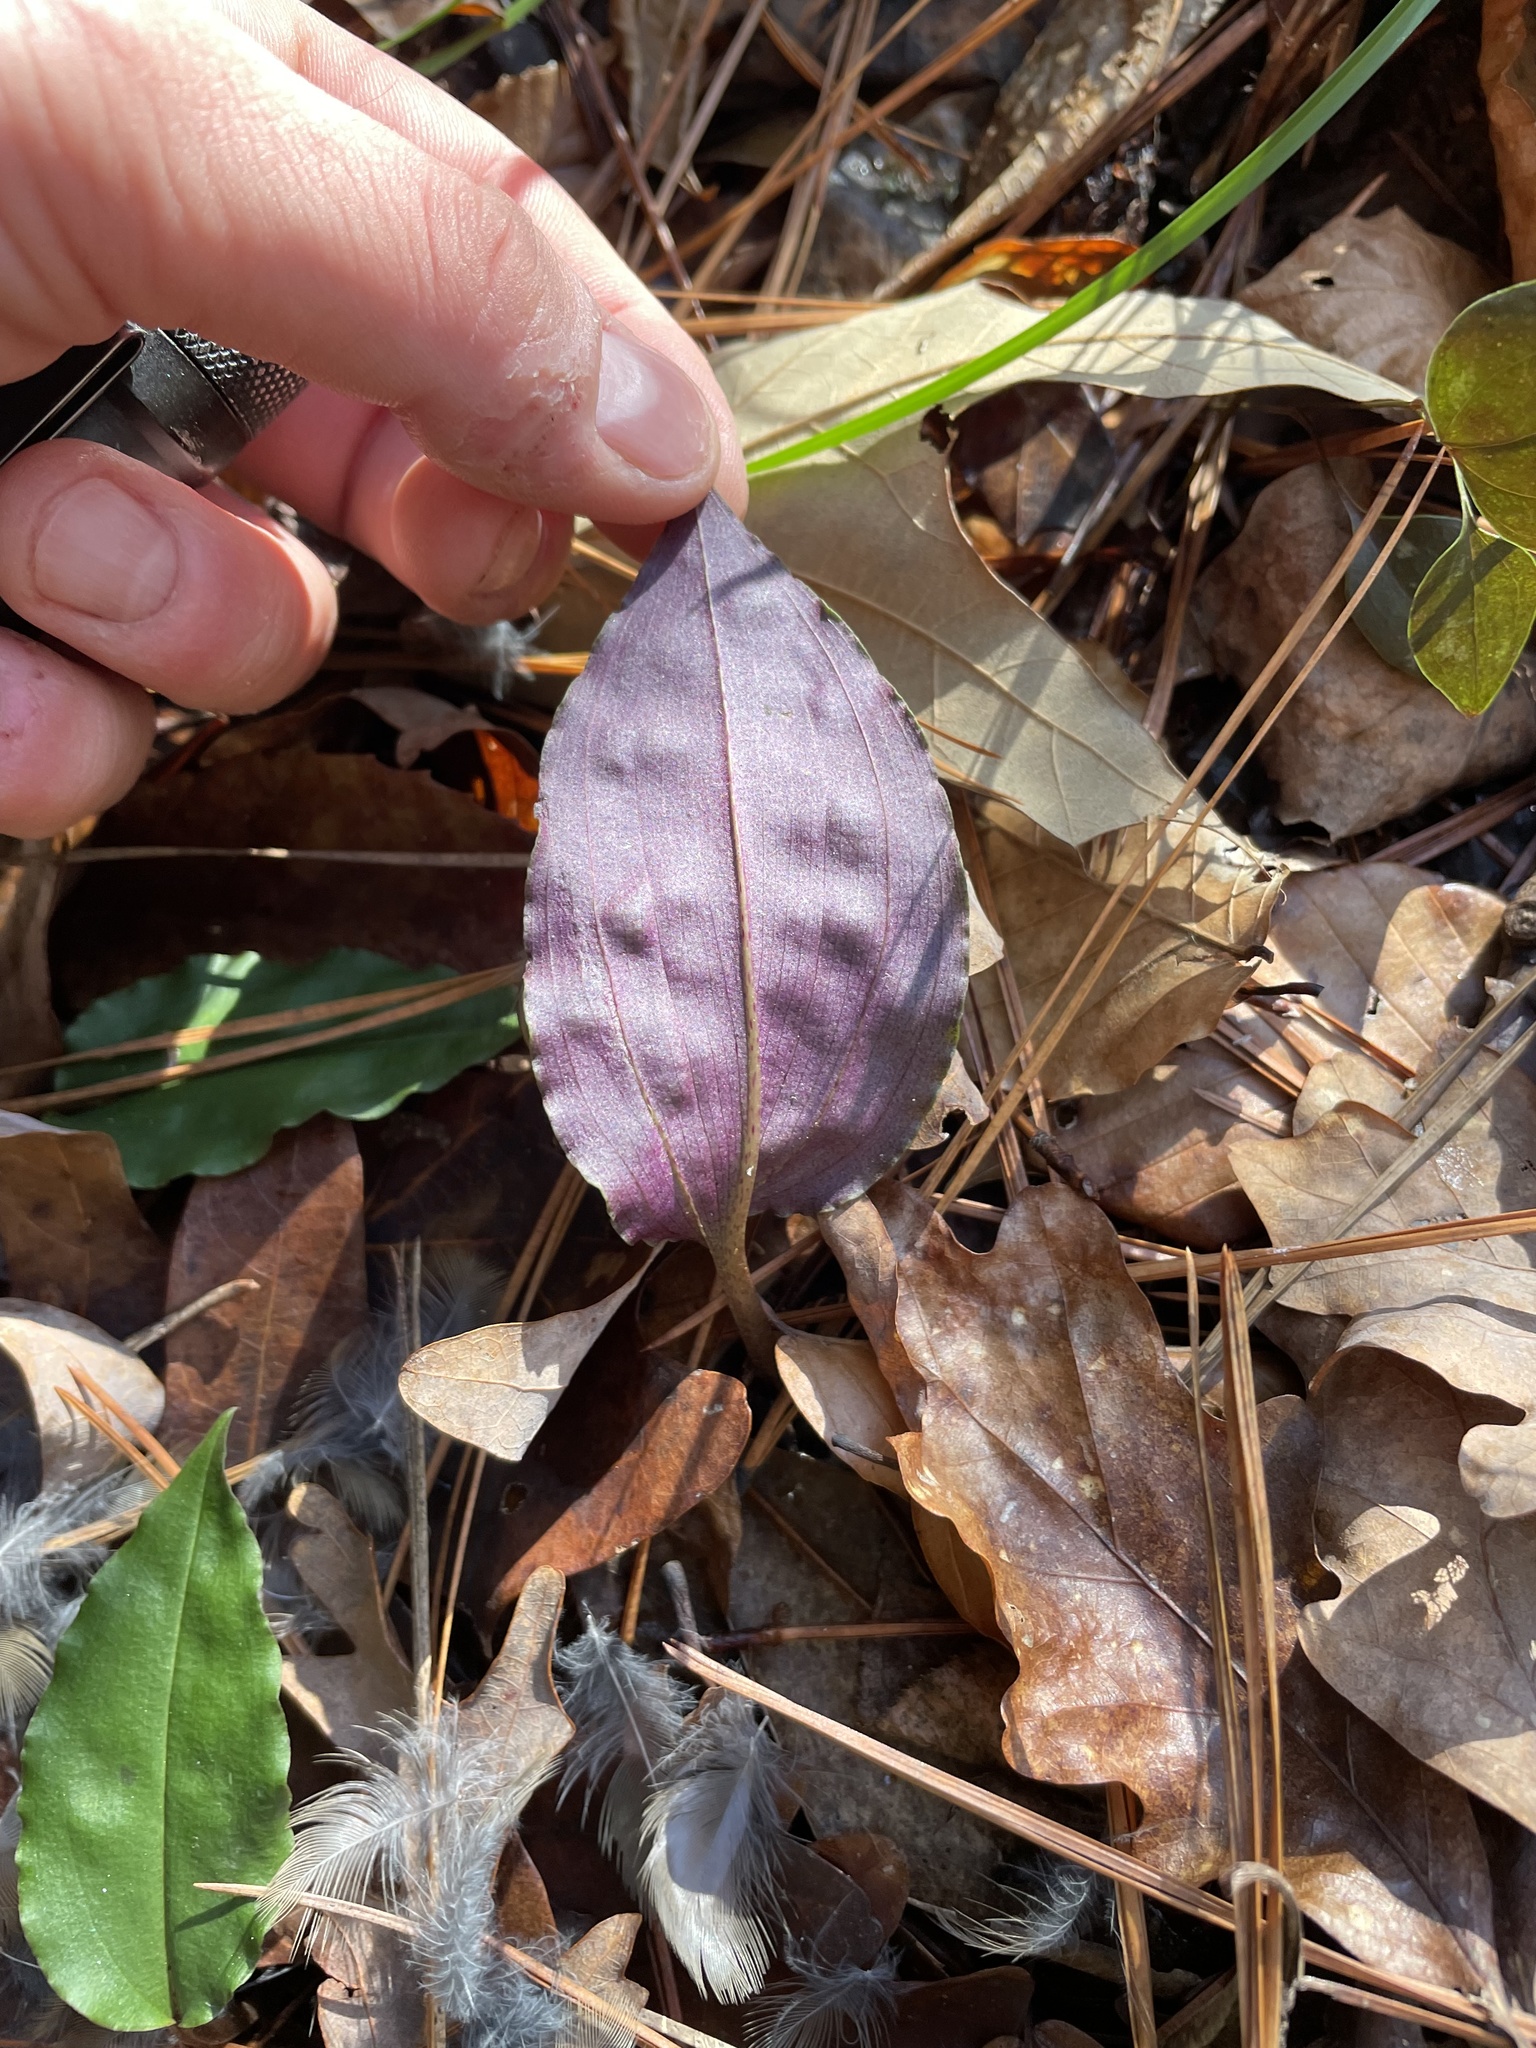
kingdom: Plantae
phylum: Tracheophyta
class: Liliopsida
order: Asparagales
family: Orchidaceae
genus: Tipularia
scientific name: Tipularia discolor
